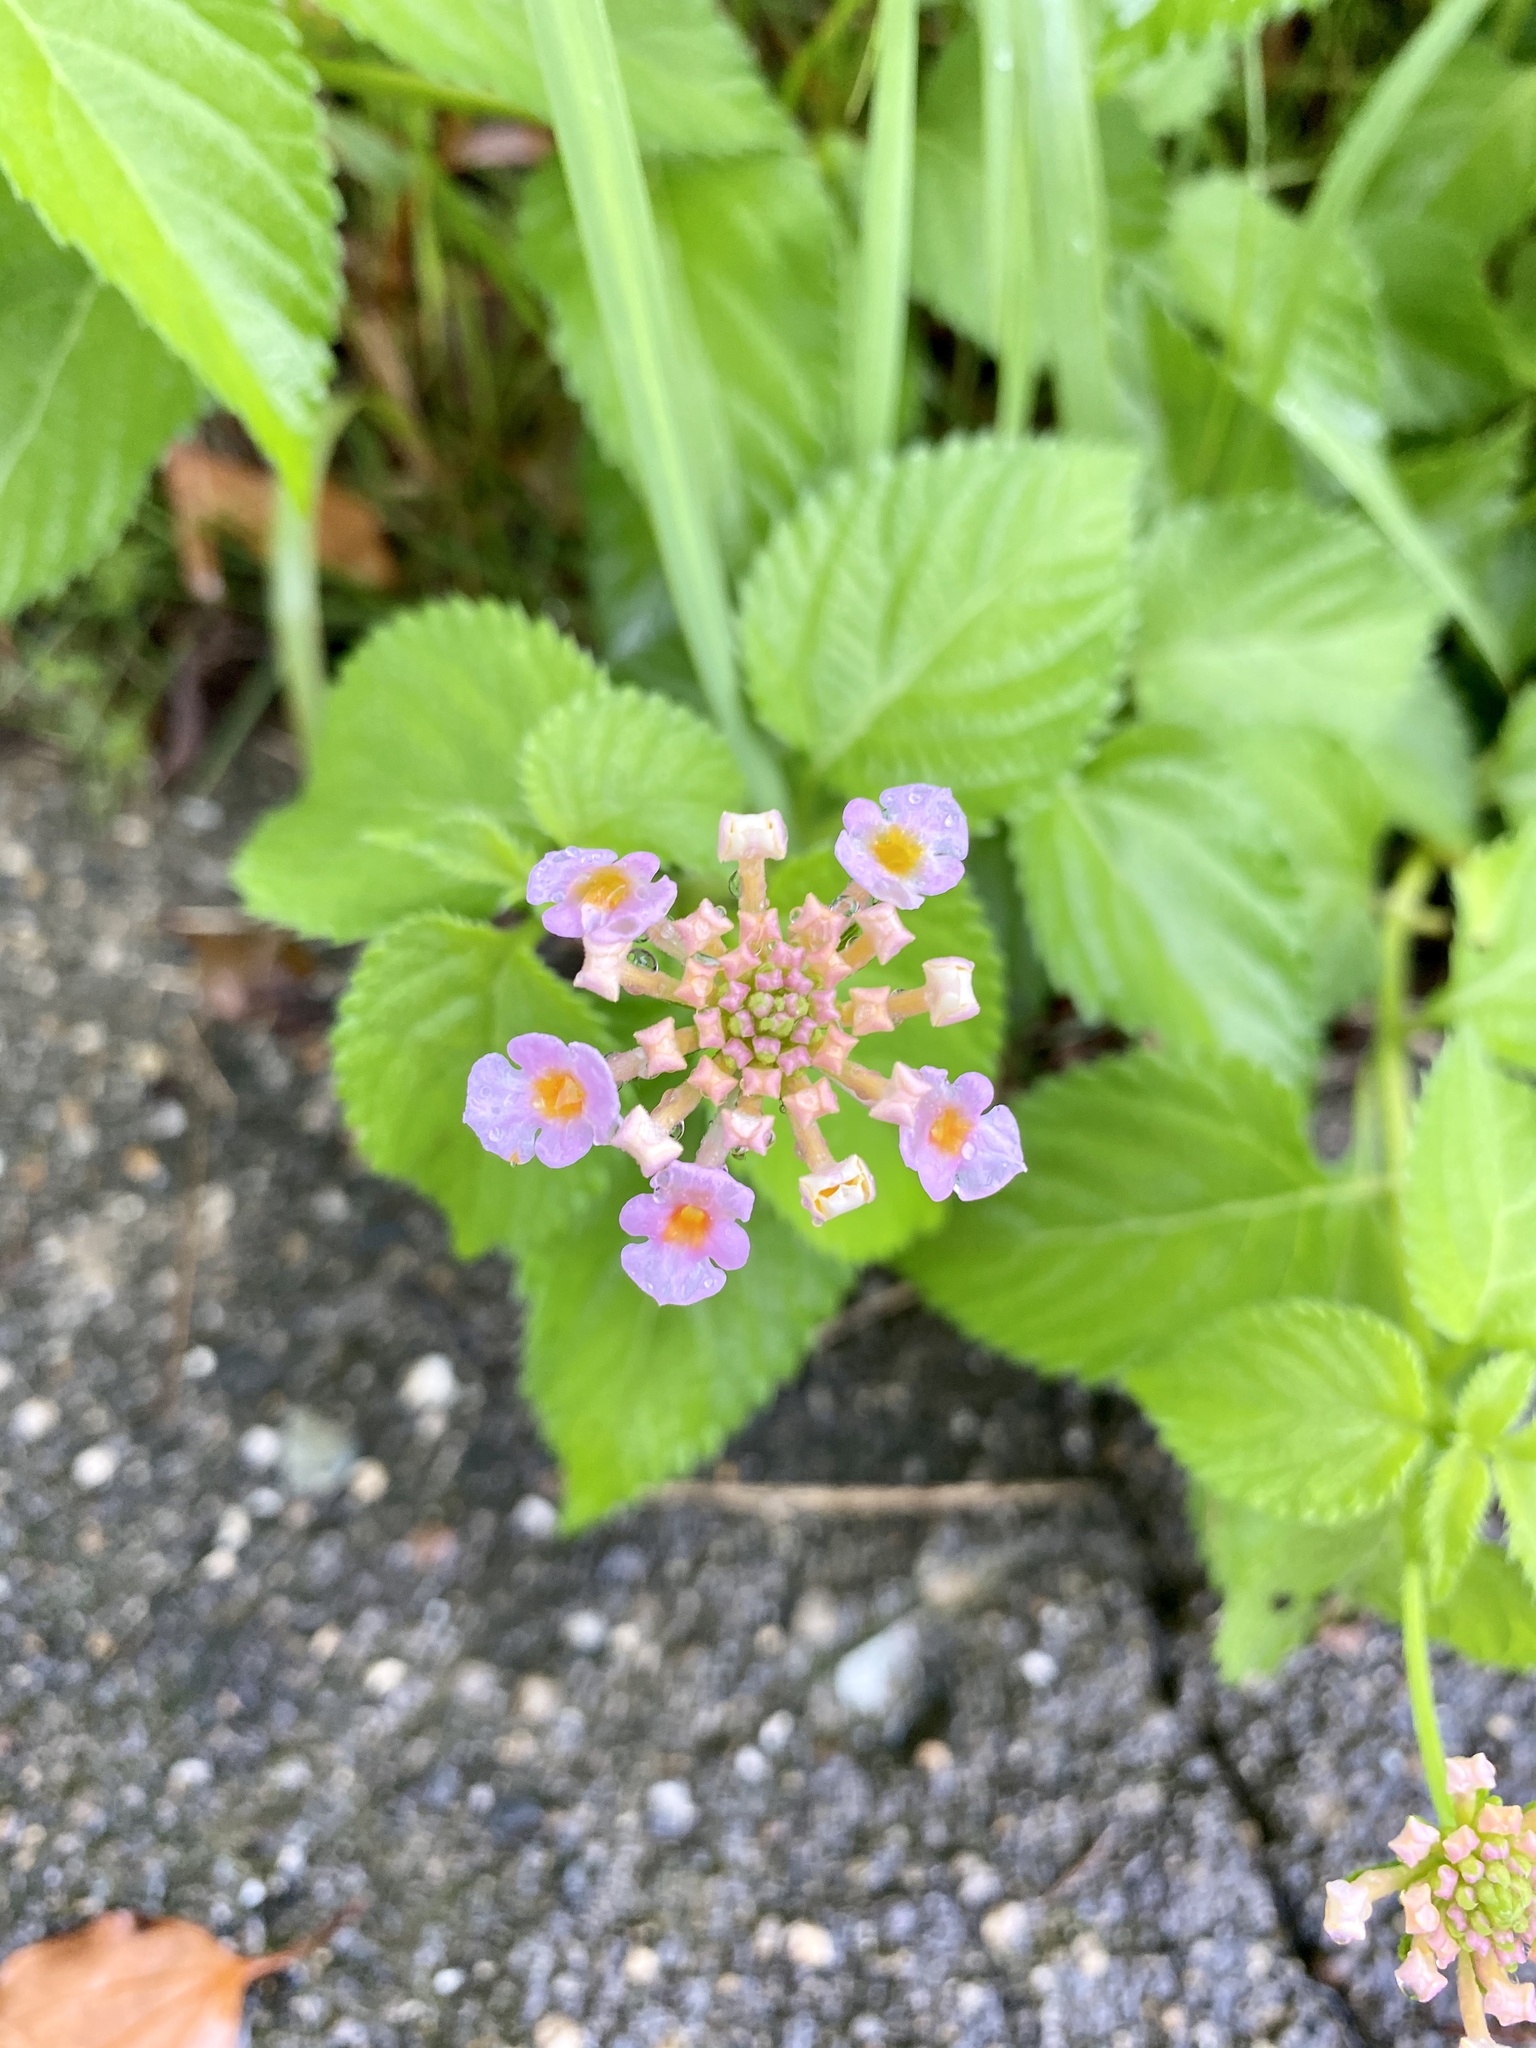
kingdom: Plantae
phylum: Tracheophyta
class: Magnoliopsida
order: Lamiales
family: Verbenaceae
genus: Lantana
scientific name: Lantana camara
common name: Lantana
